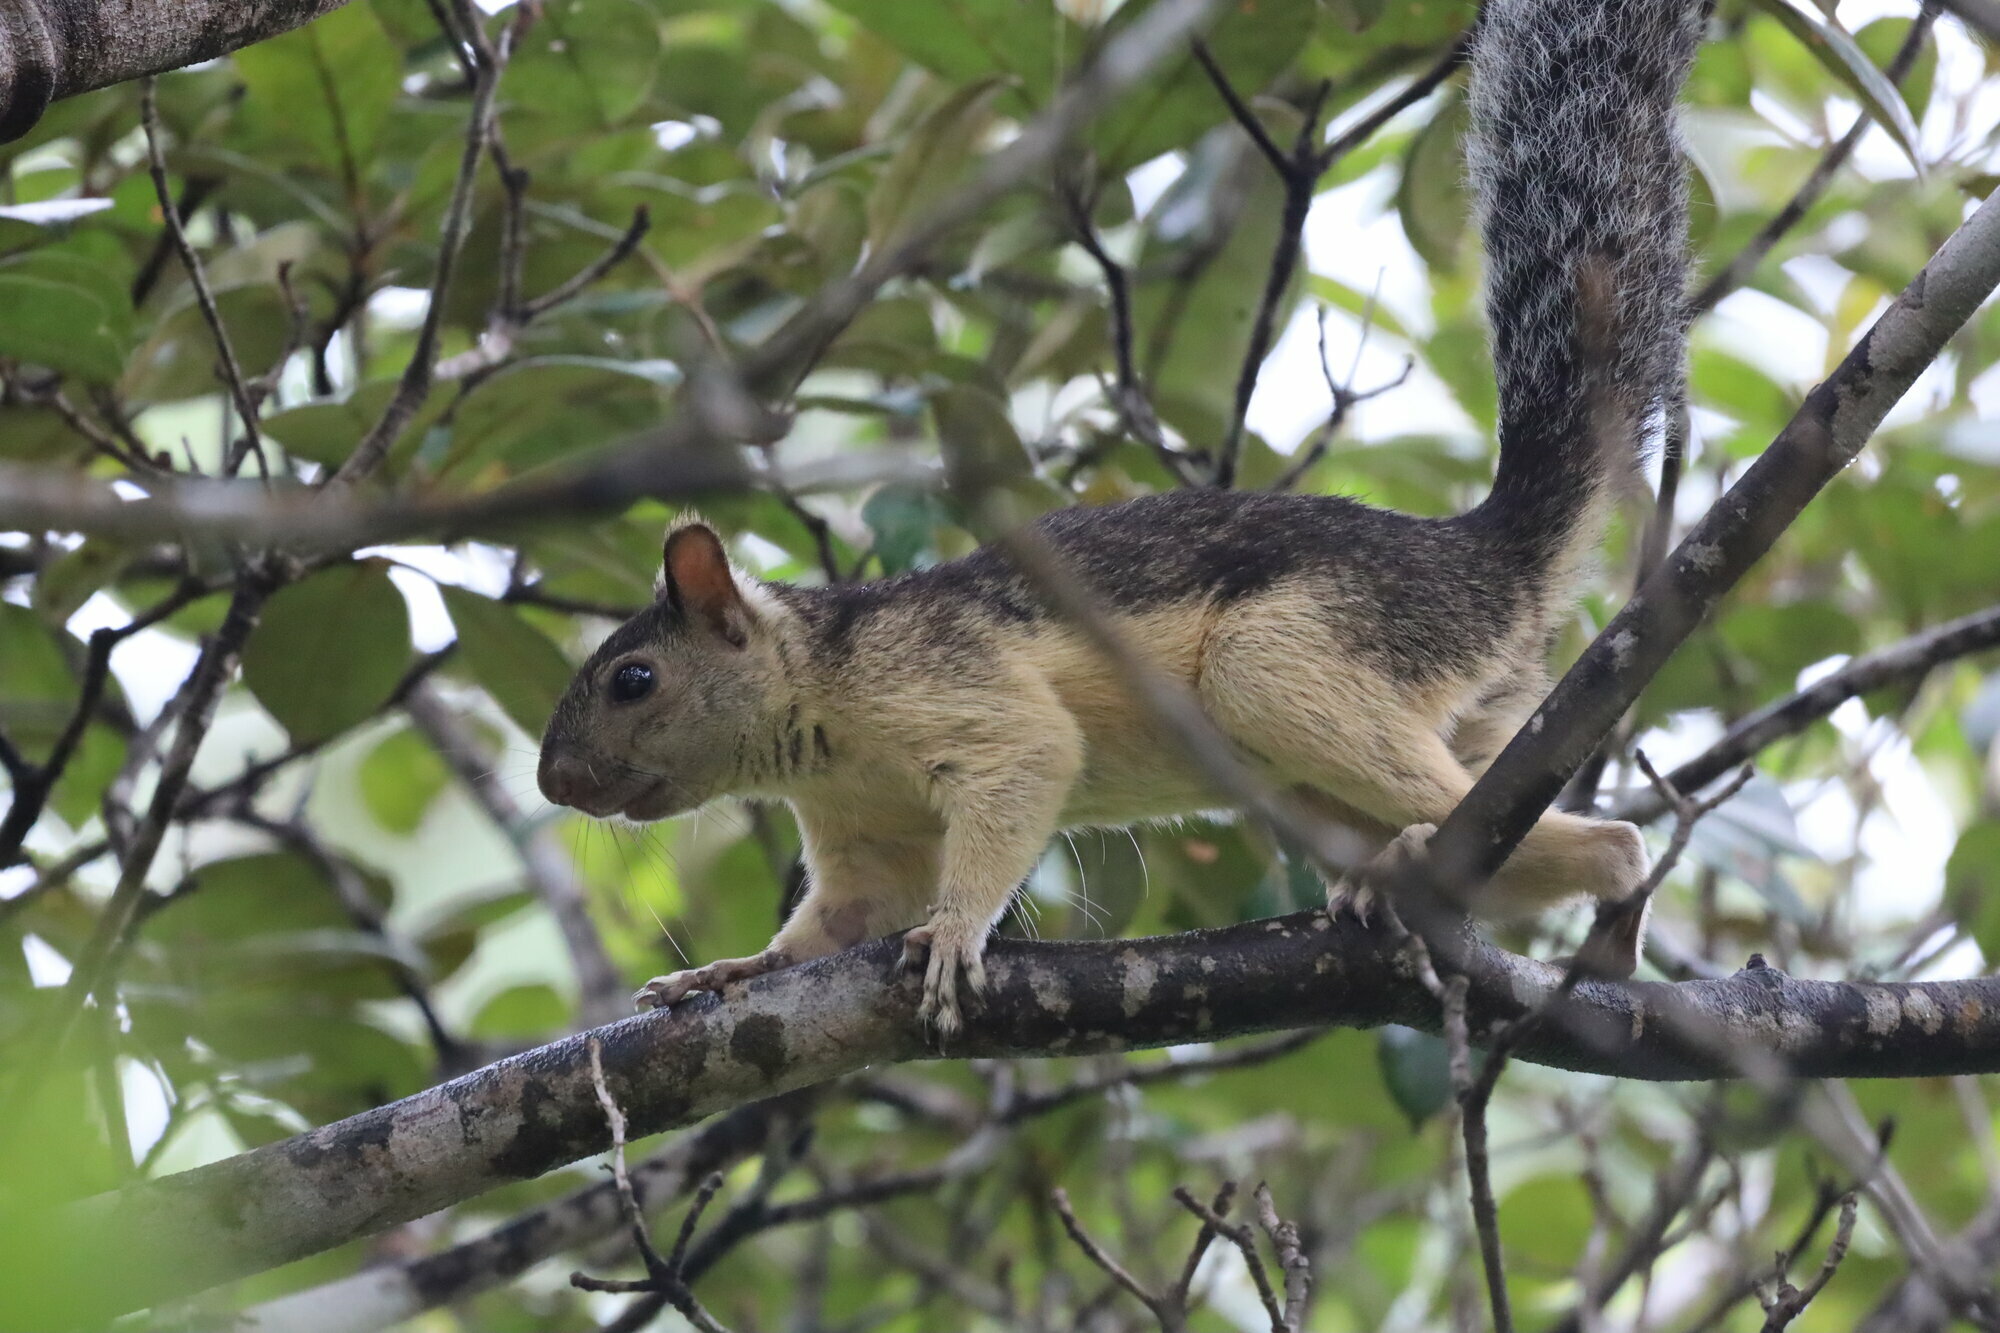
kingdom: Animalia
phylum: Chordata
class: Mammalia
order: Rodentia
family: Sciuridae
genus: Sciurus
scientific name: Sciurus variegatoides
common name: Variegated squirrel
